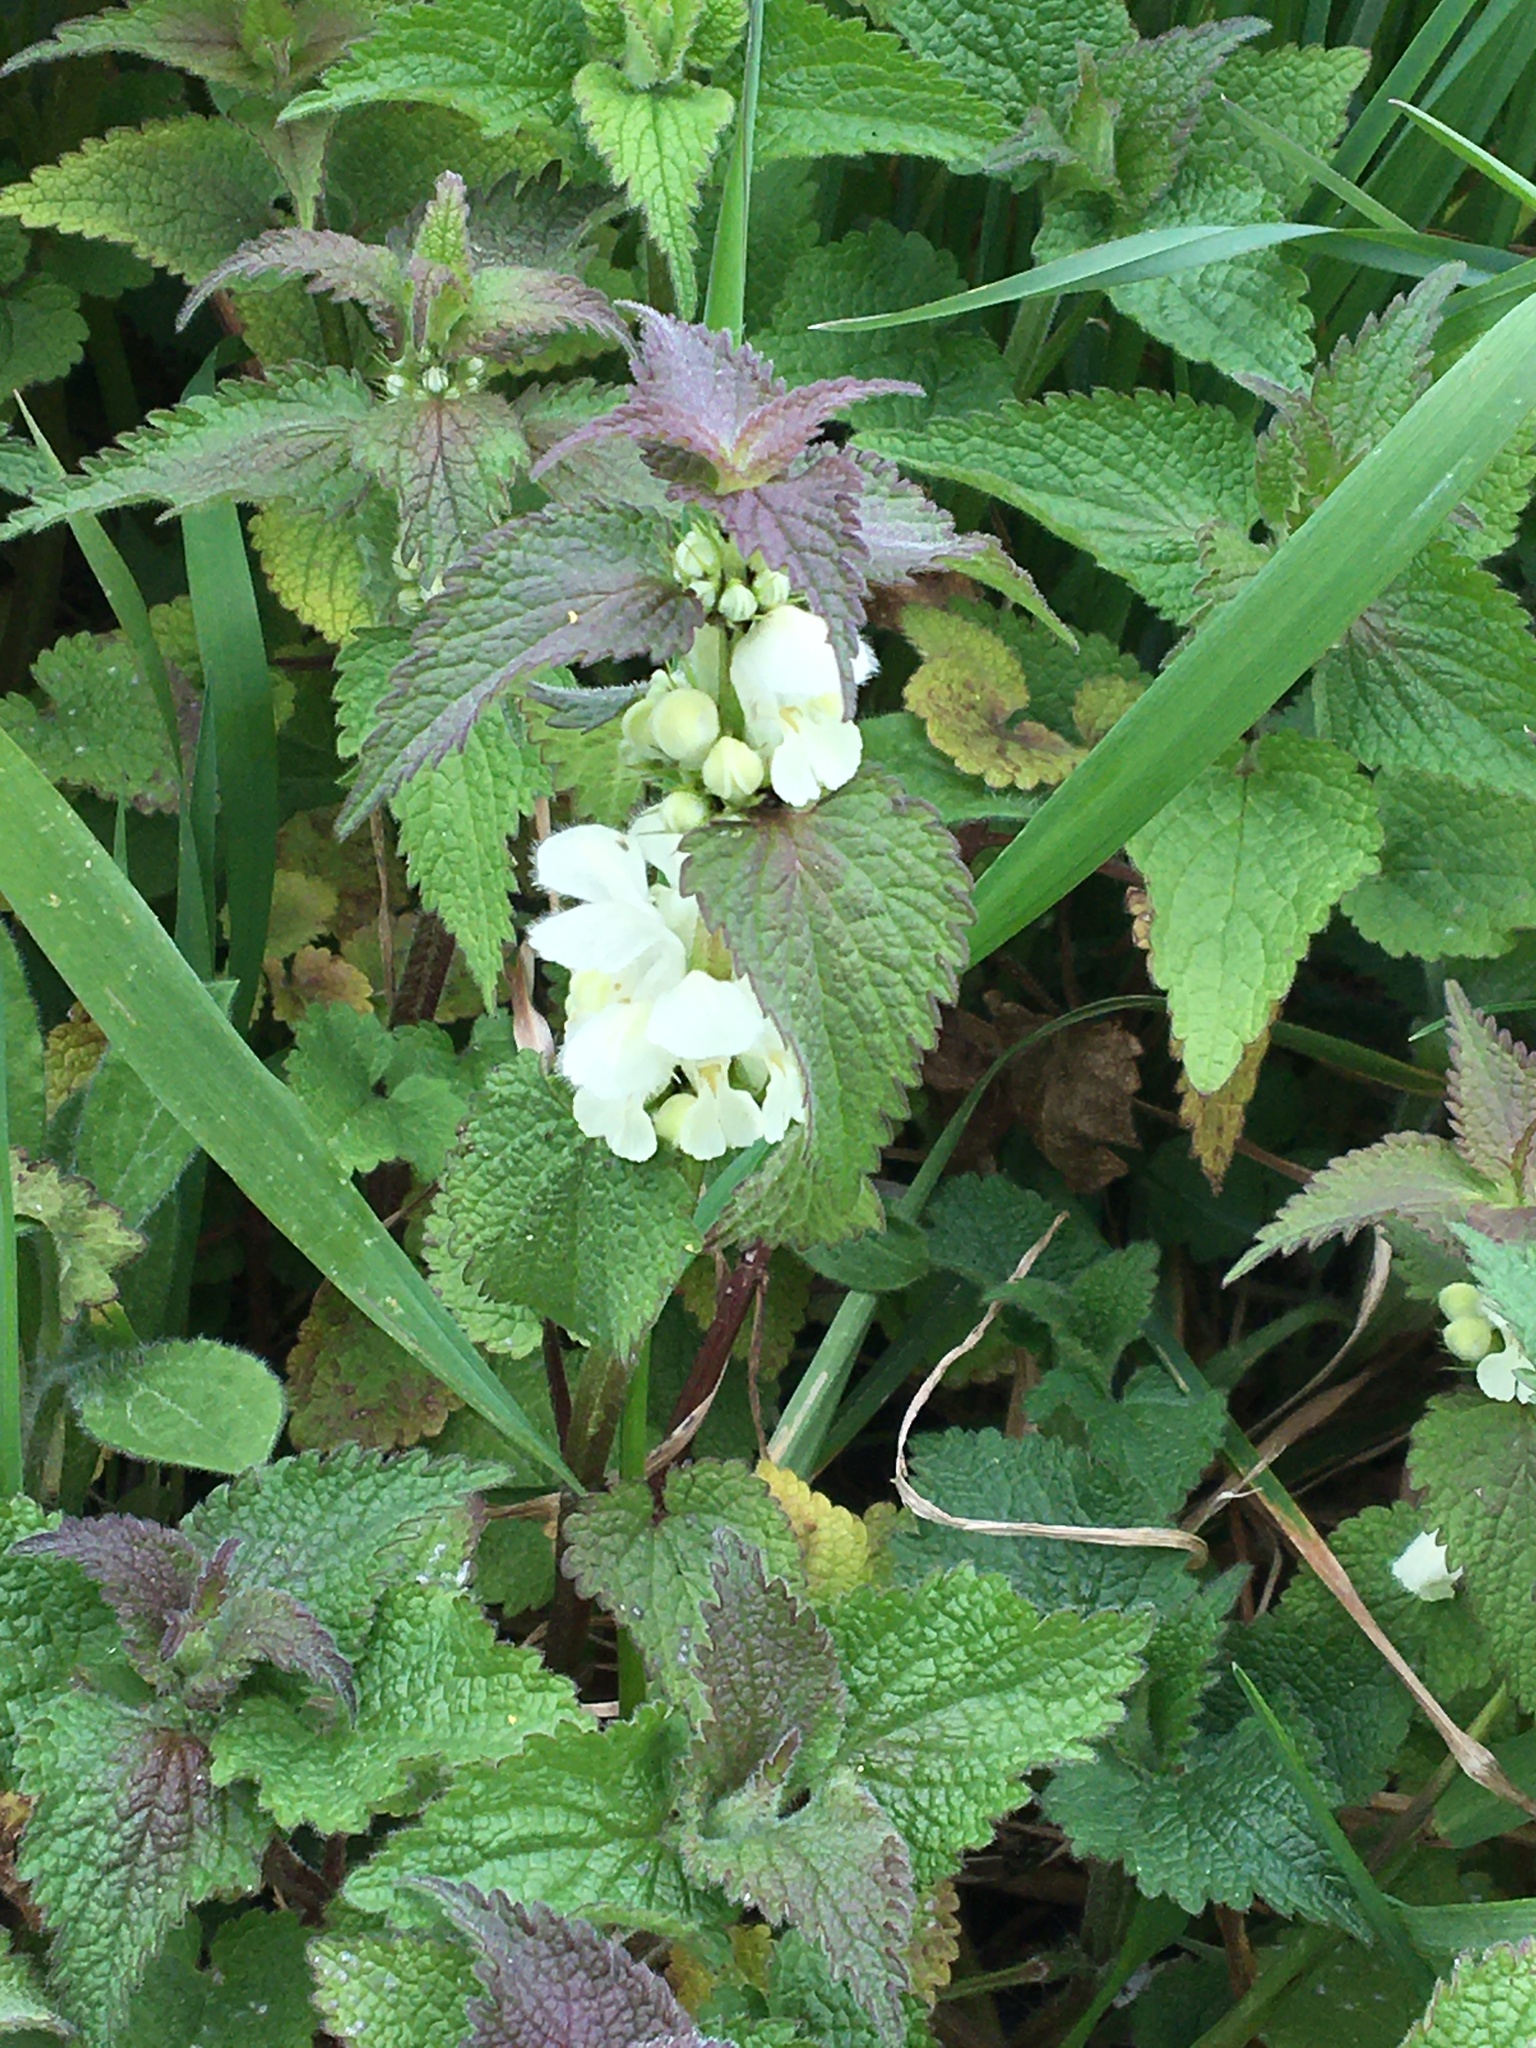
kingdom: Plantae
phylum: Tracheophyta
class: Magnoliopsida
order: Lamiales
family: Lamiaceae
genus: Lamium
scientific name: Lamium album
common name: White dead-nettle
